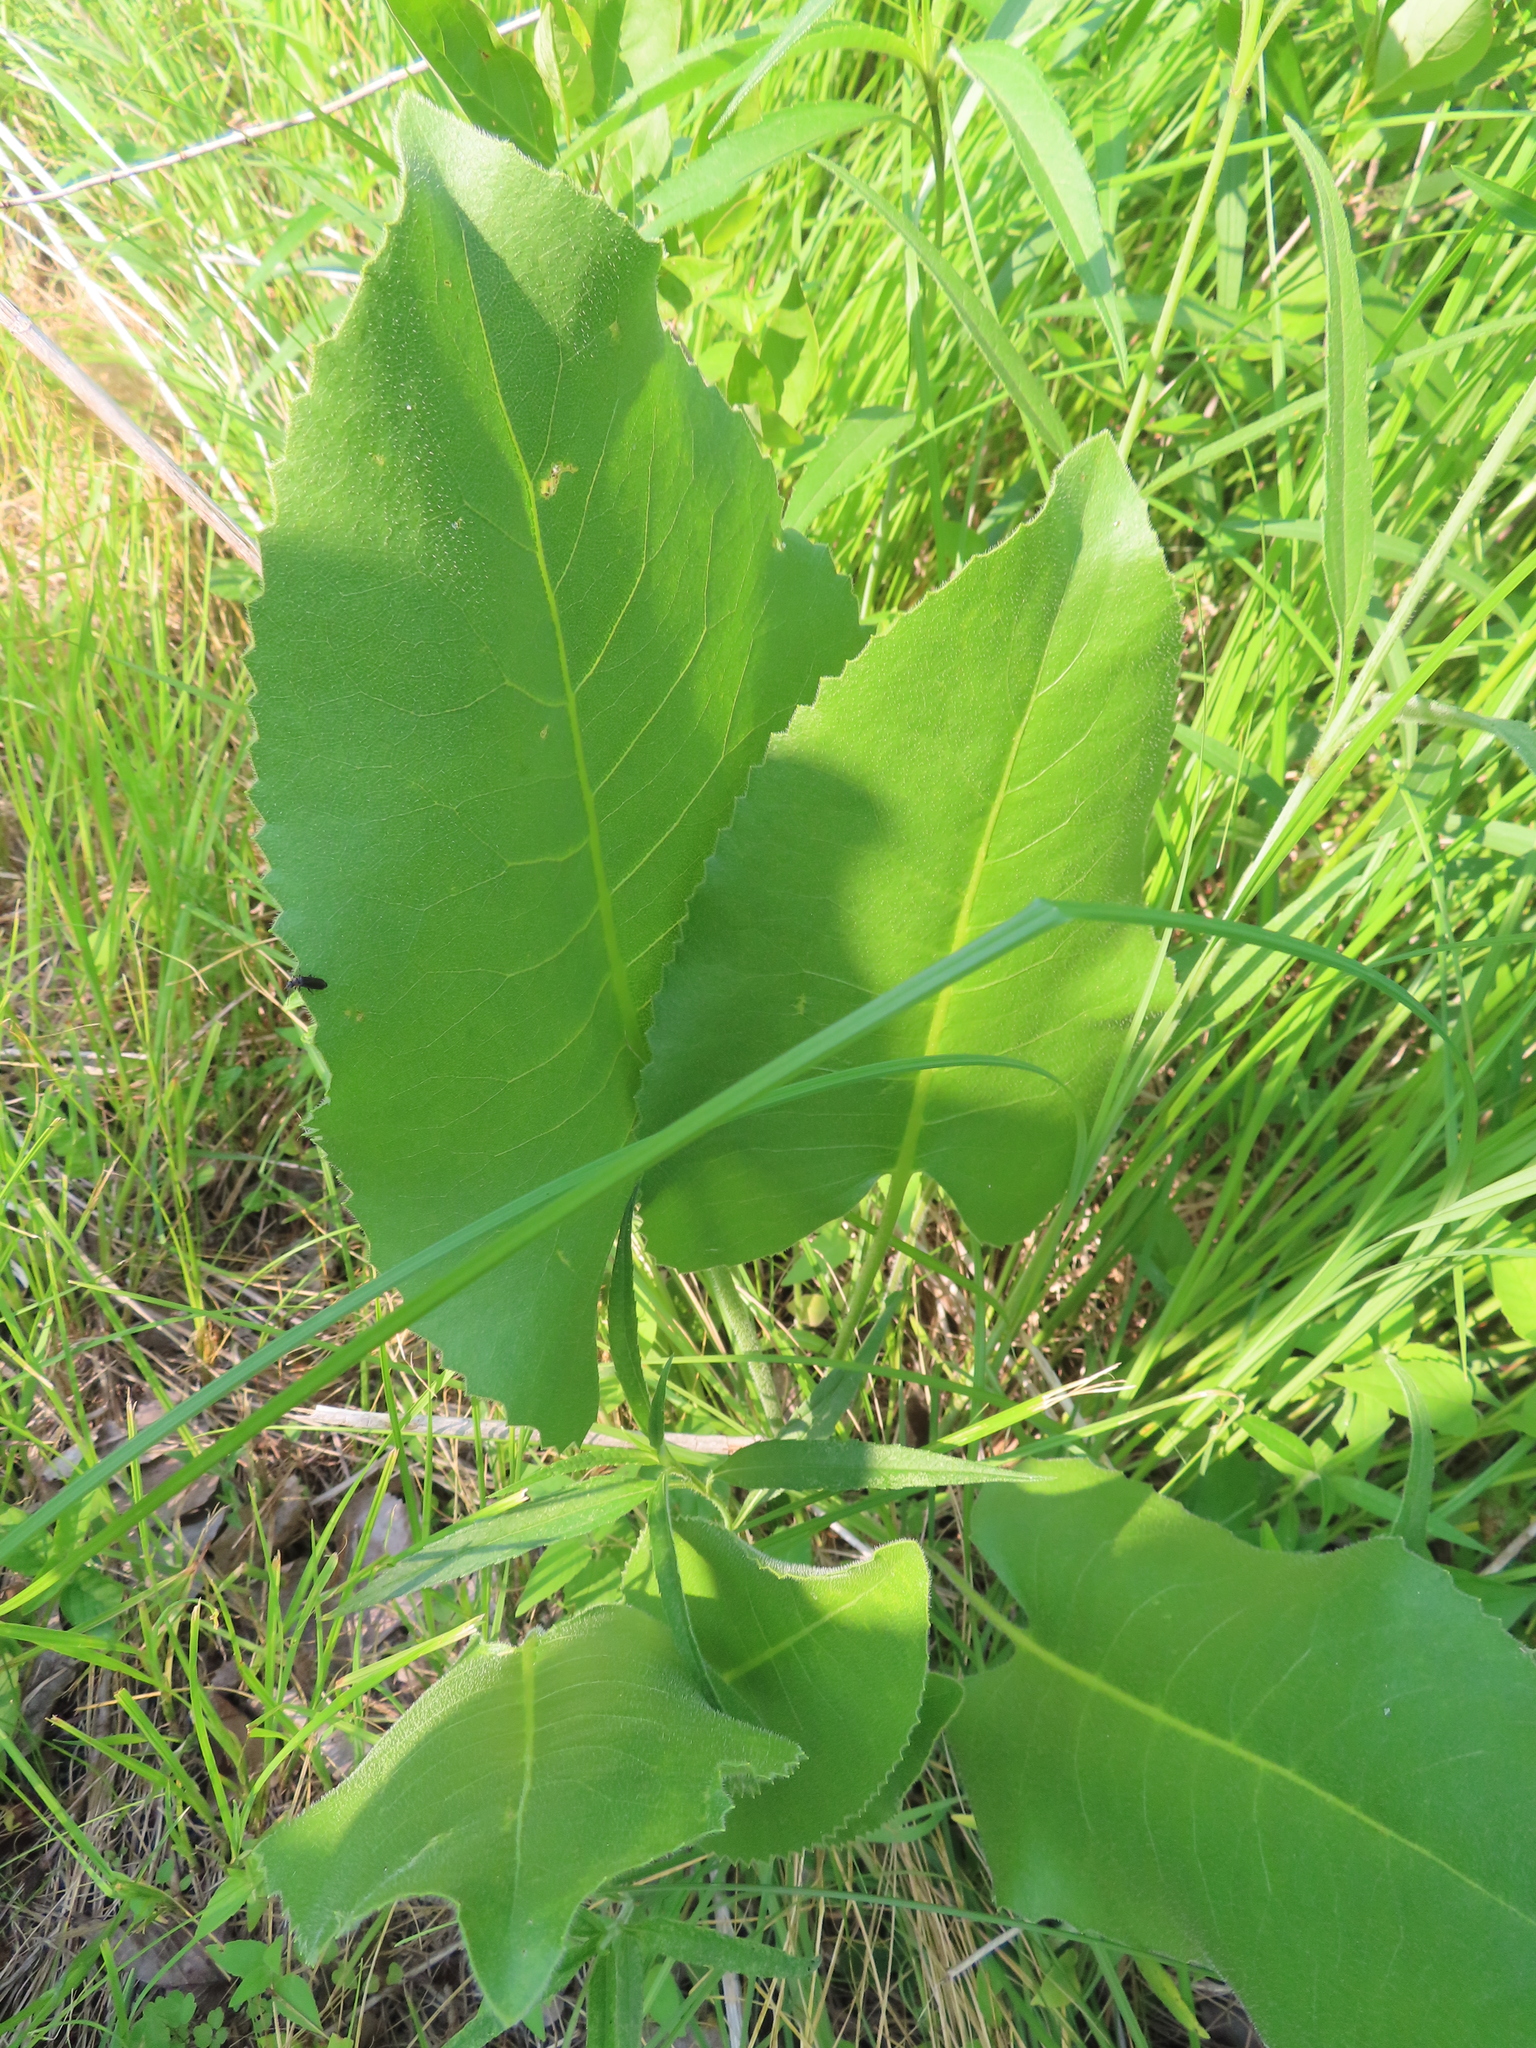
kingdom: Plantae
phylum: Tracheophyta
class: Magnoliopsida
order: Asterales
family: Asteraceae
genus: Silphium
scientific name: Silphium terebinthinaceum
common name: Basal-leaf rosinweed
